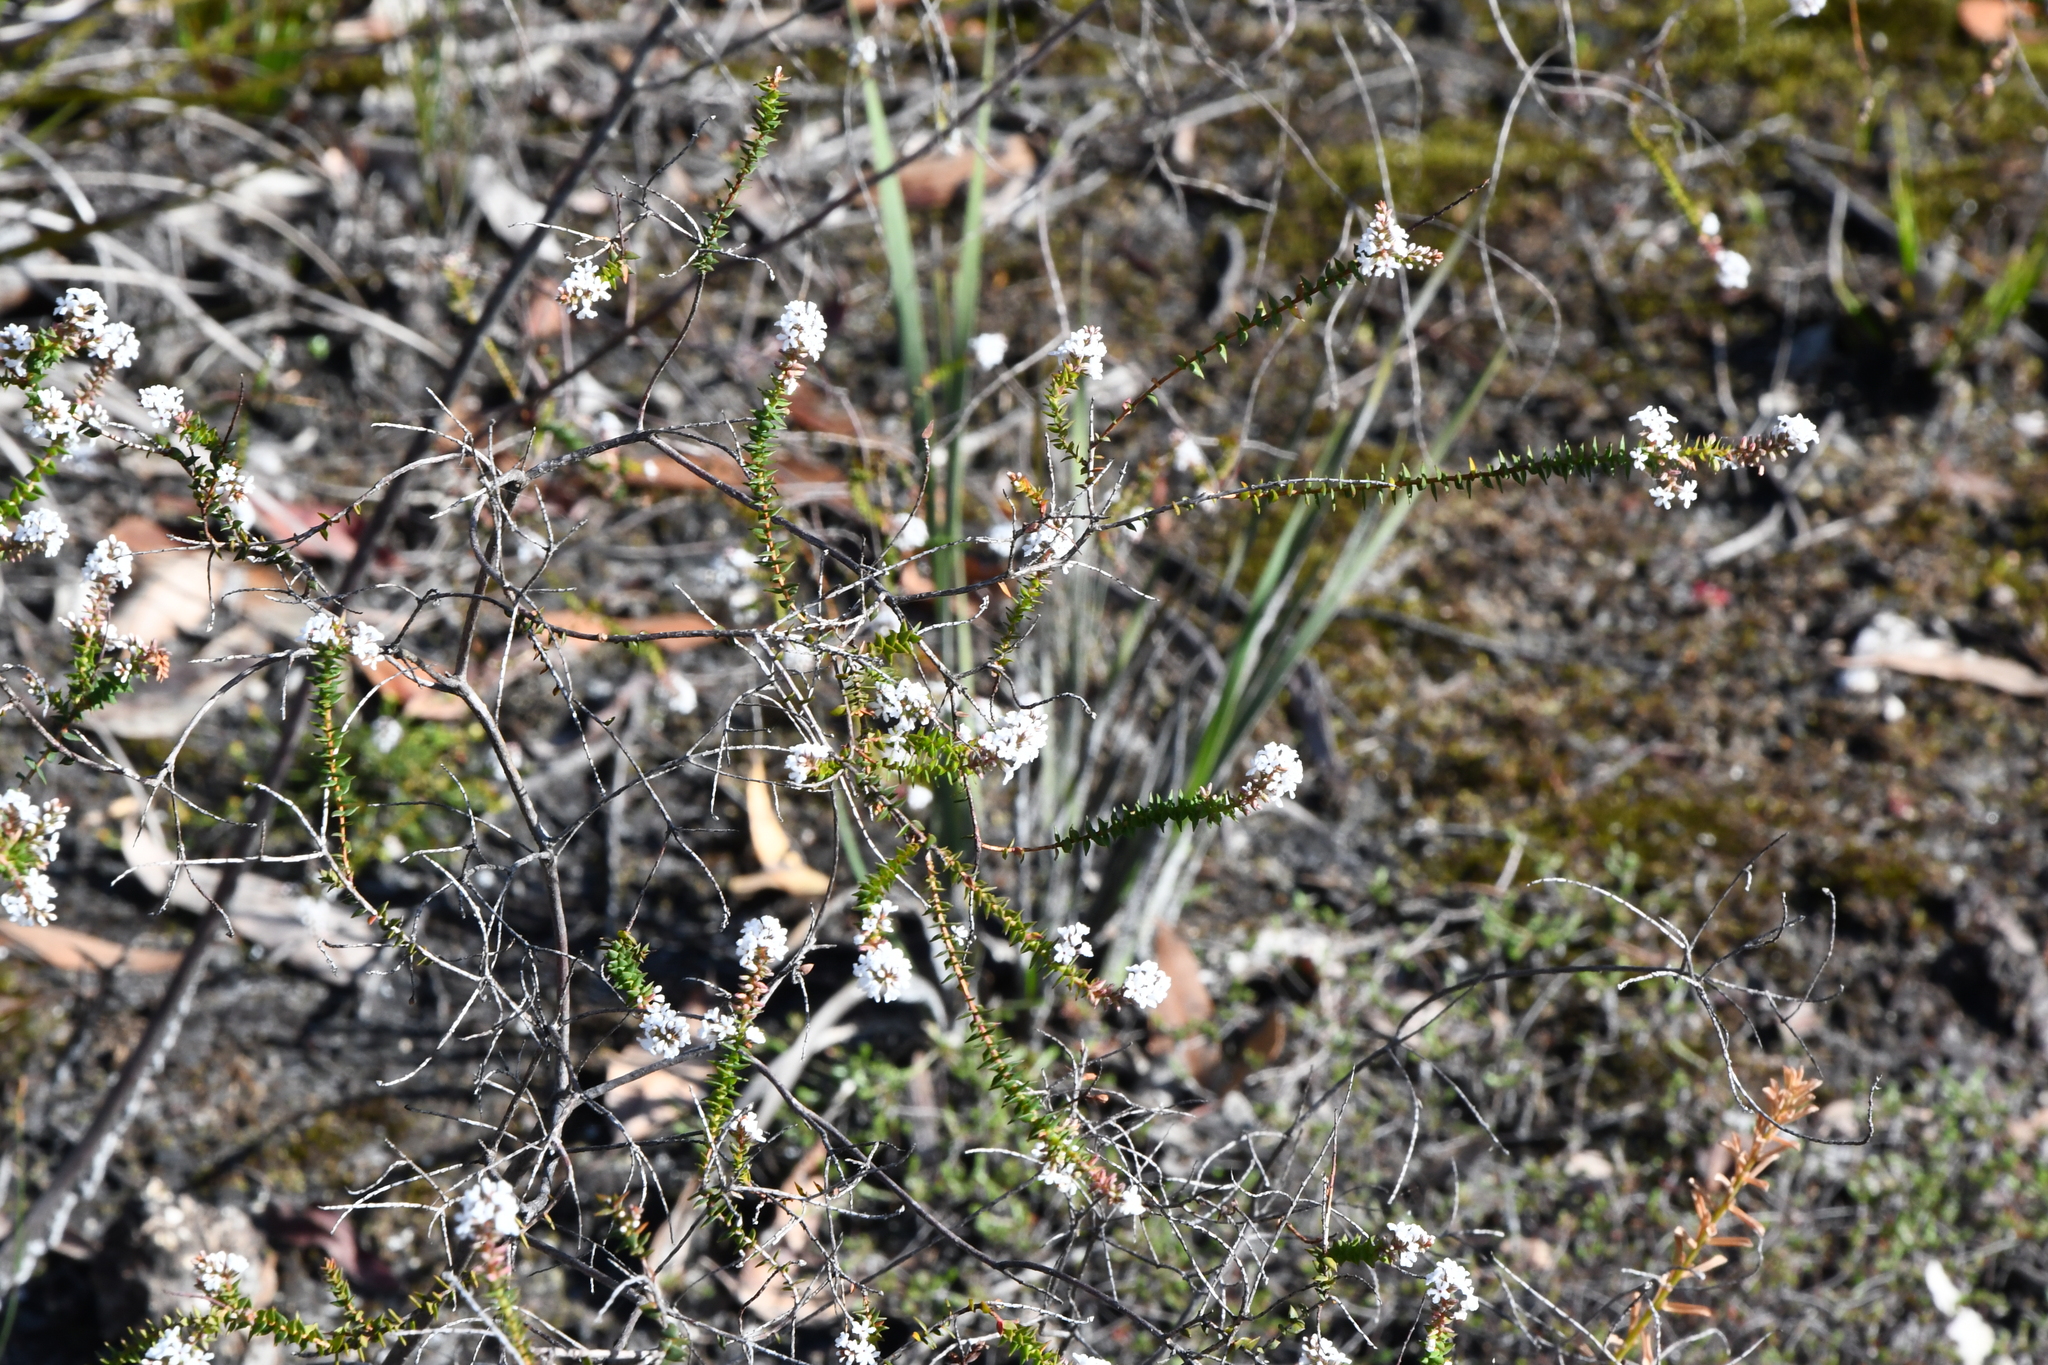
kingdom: Plantae
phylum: Tracheophyta
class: Magnoliopsida
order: Ericales
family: Ericaceae
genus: Leucopogon
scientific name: Leucopogon glabellus
